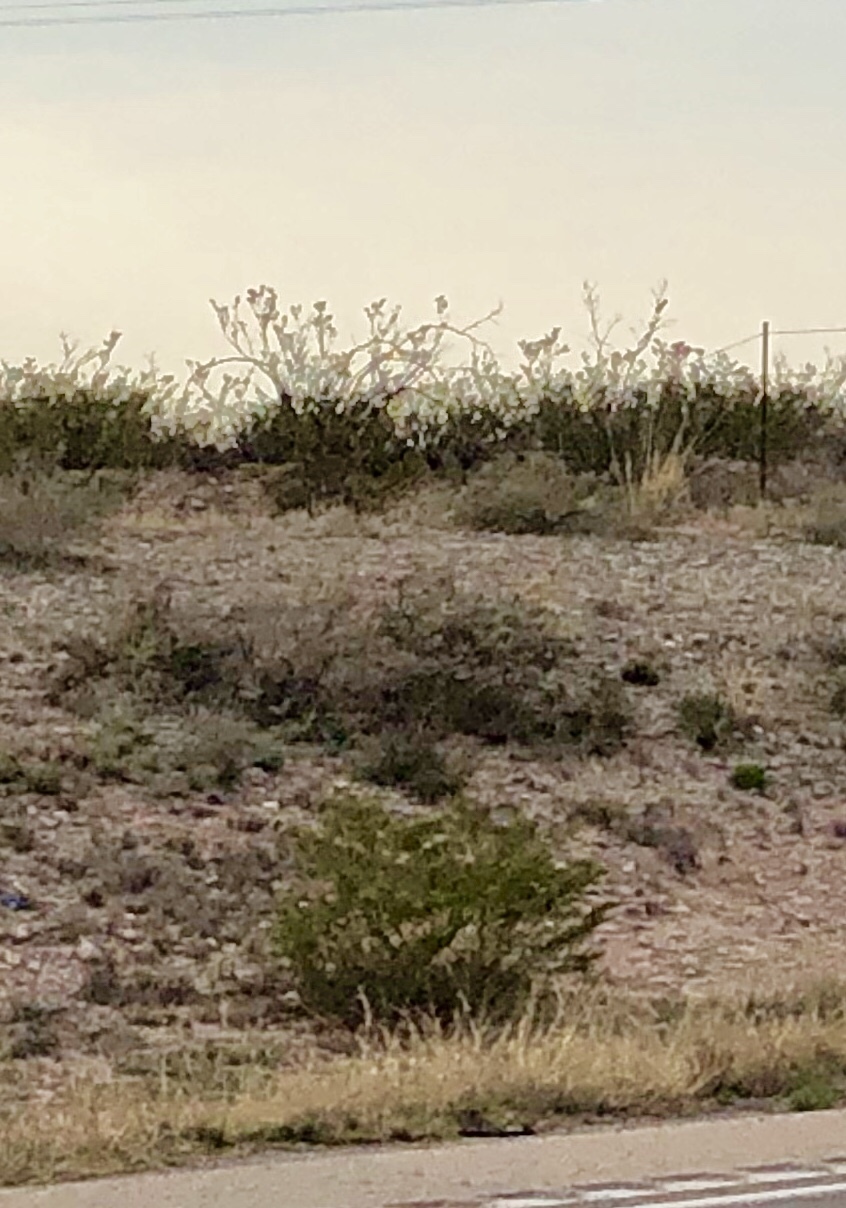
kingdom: Plantae
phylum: Tracheophyta
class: Magnoliopsida
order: Zygophyllales
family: Zygophyllaceae
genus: Larrea
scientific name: Larrea tridentata
